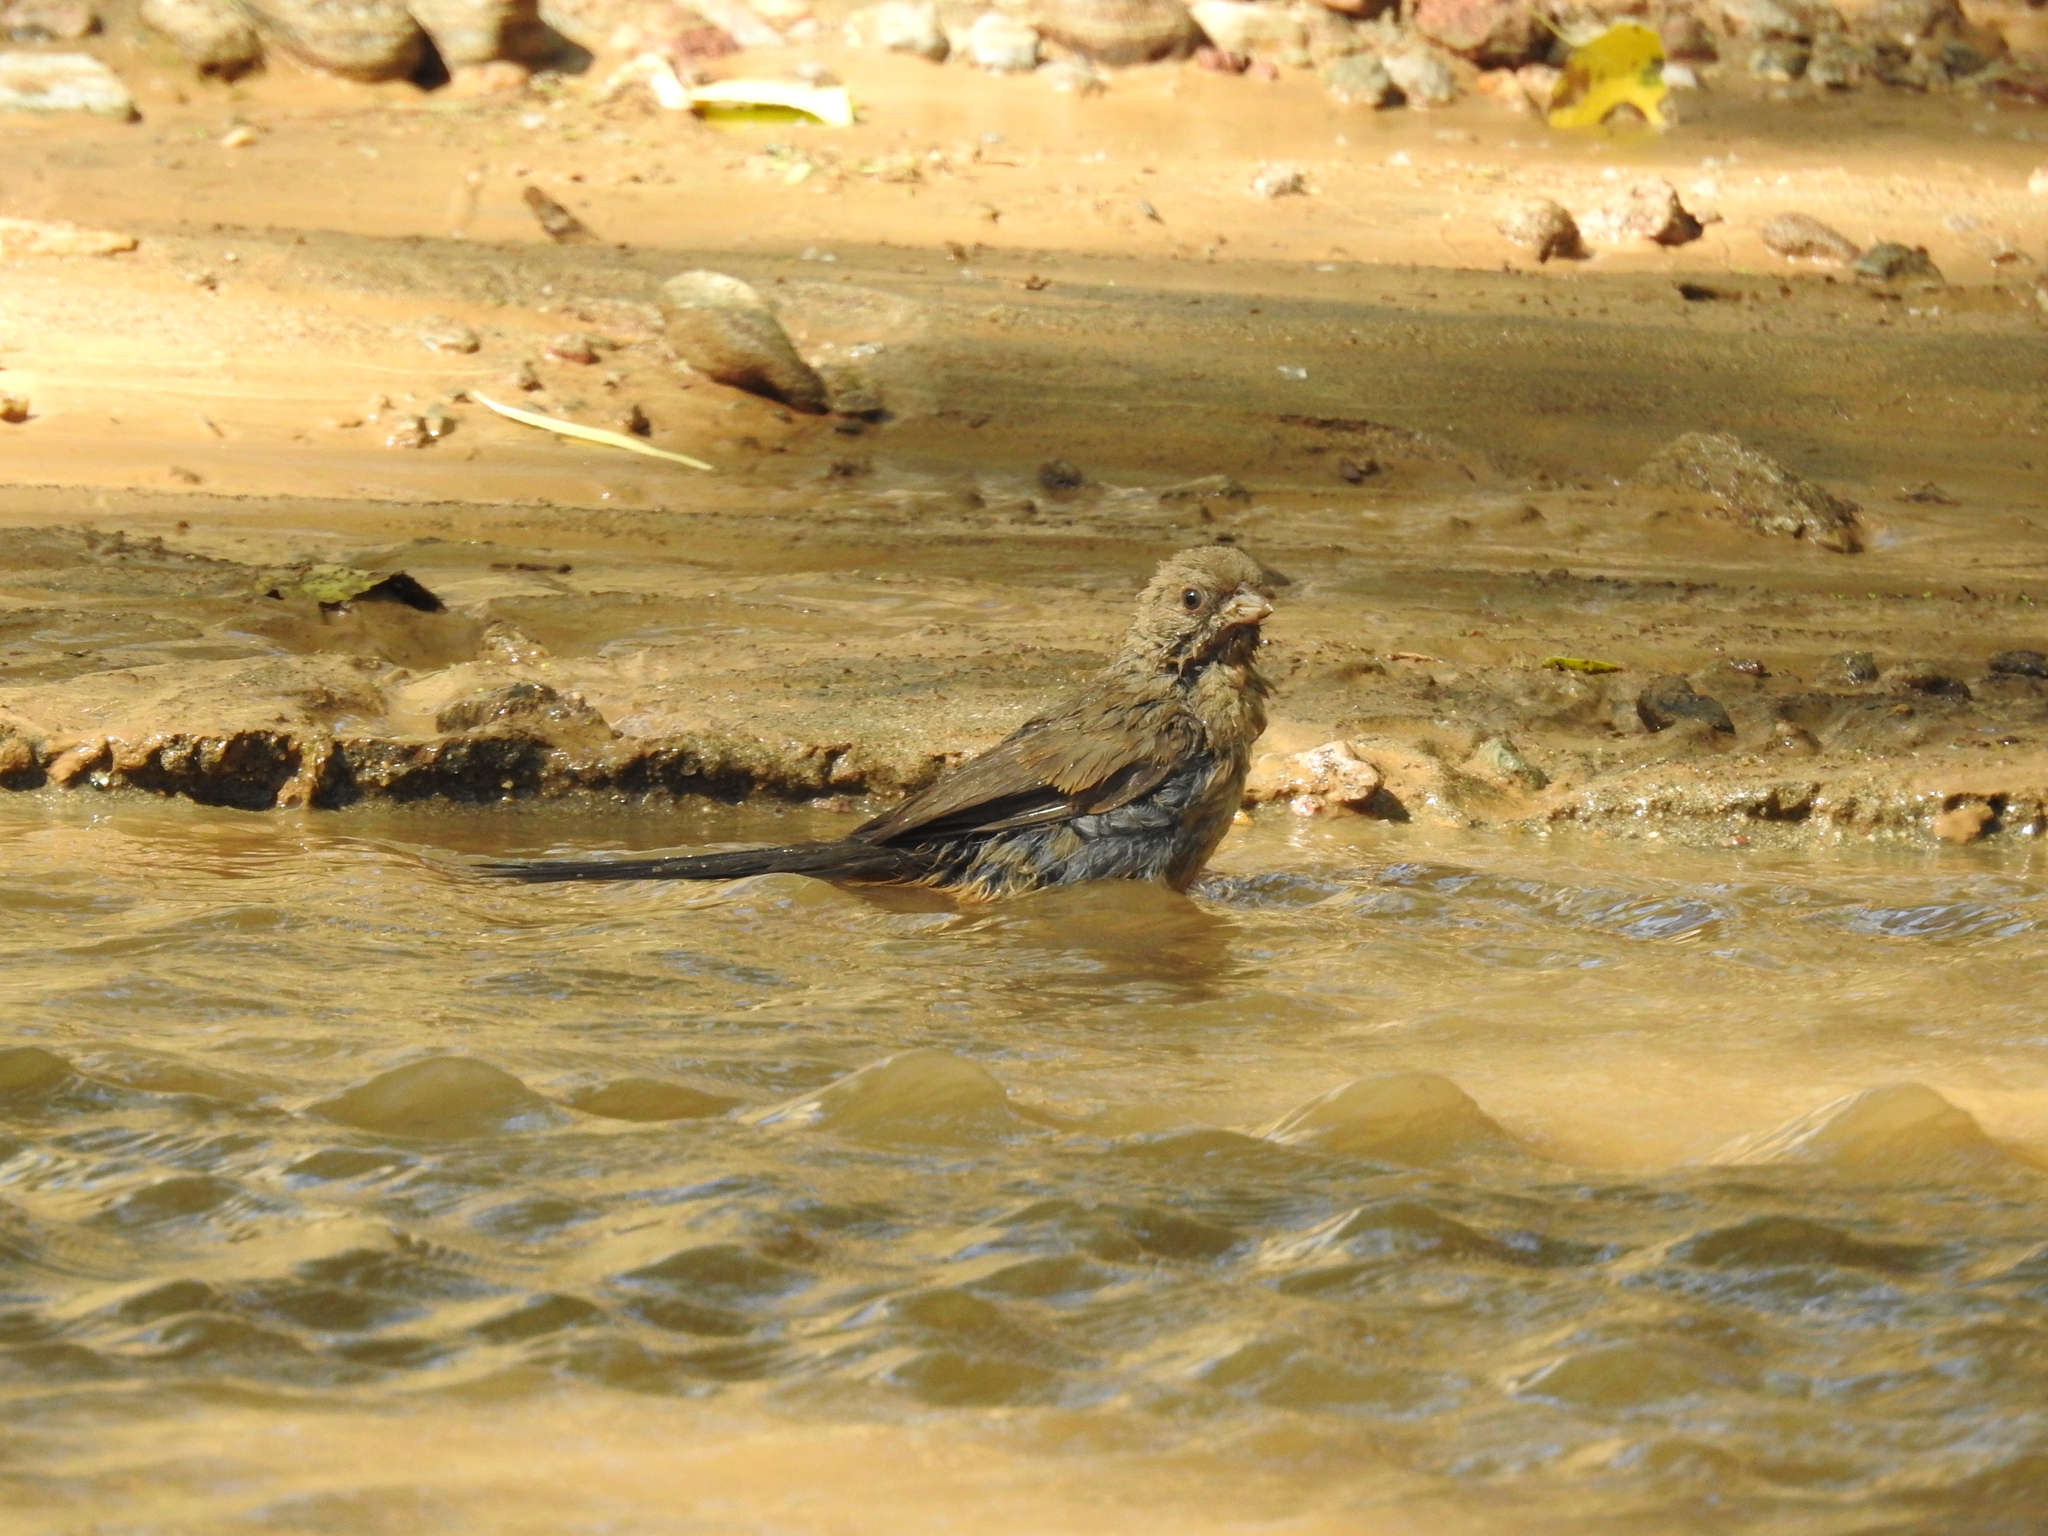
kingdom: Animalia
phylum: Chordata
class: Aves
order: Passeriformes
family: Passerellidae
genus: Melozone
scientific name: Melozone aberti
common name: Abert's towhee
